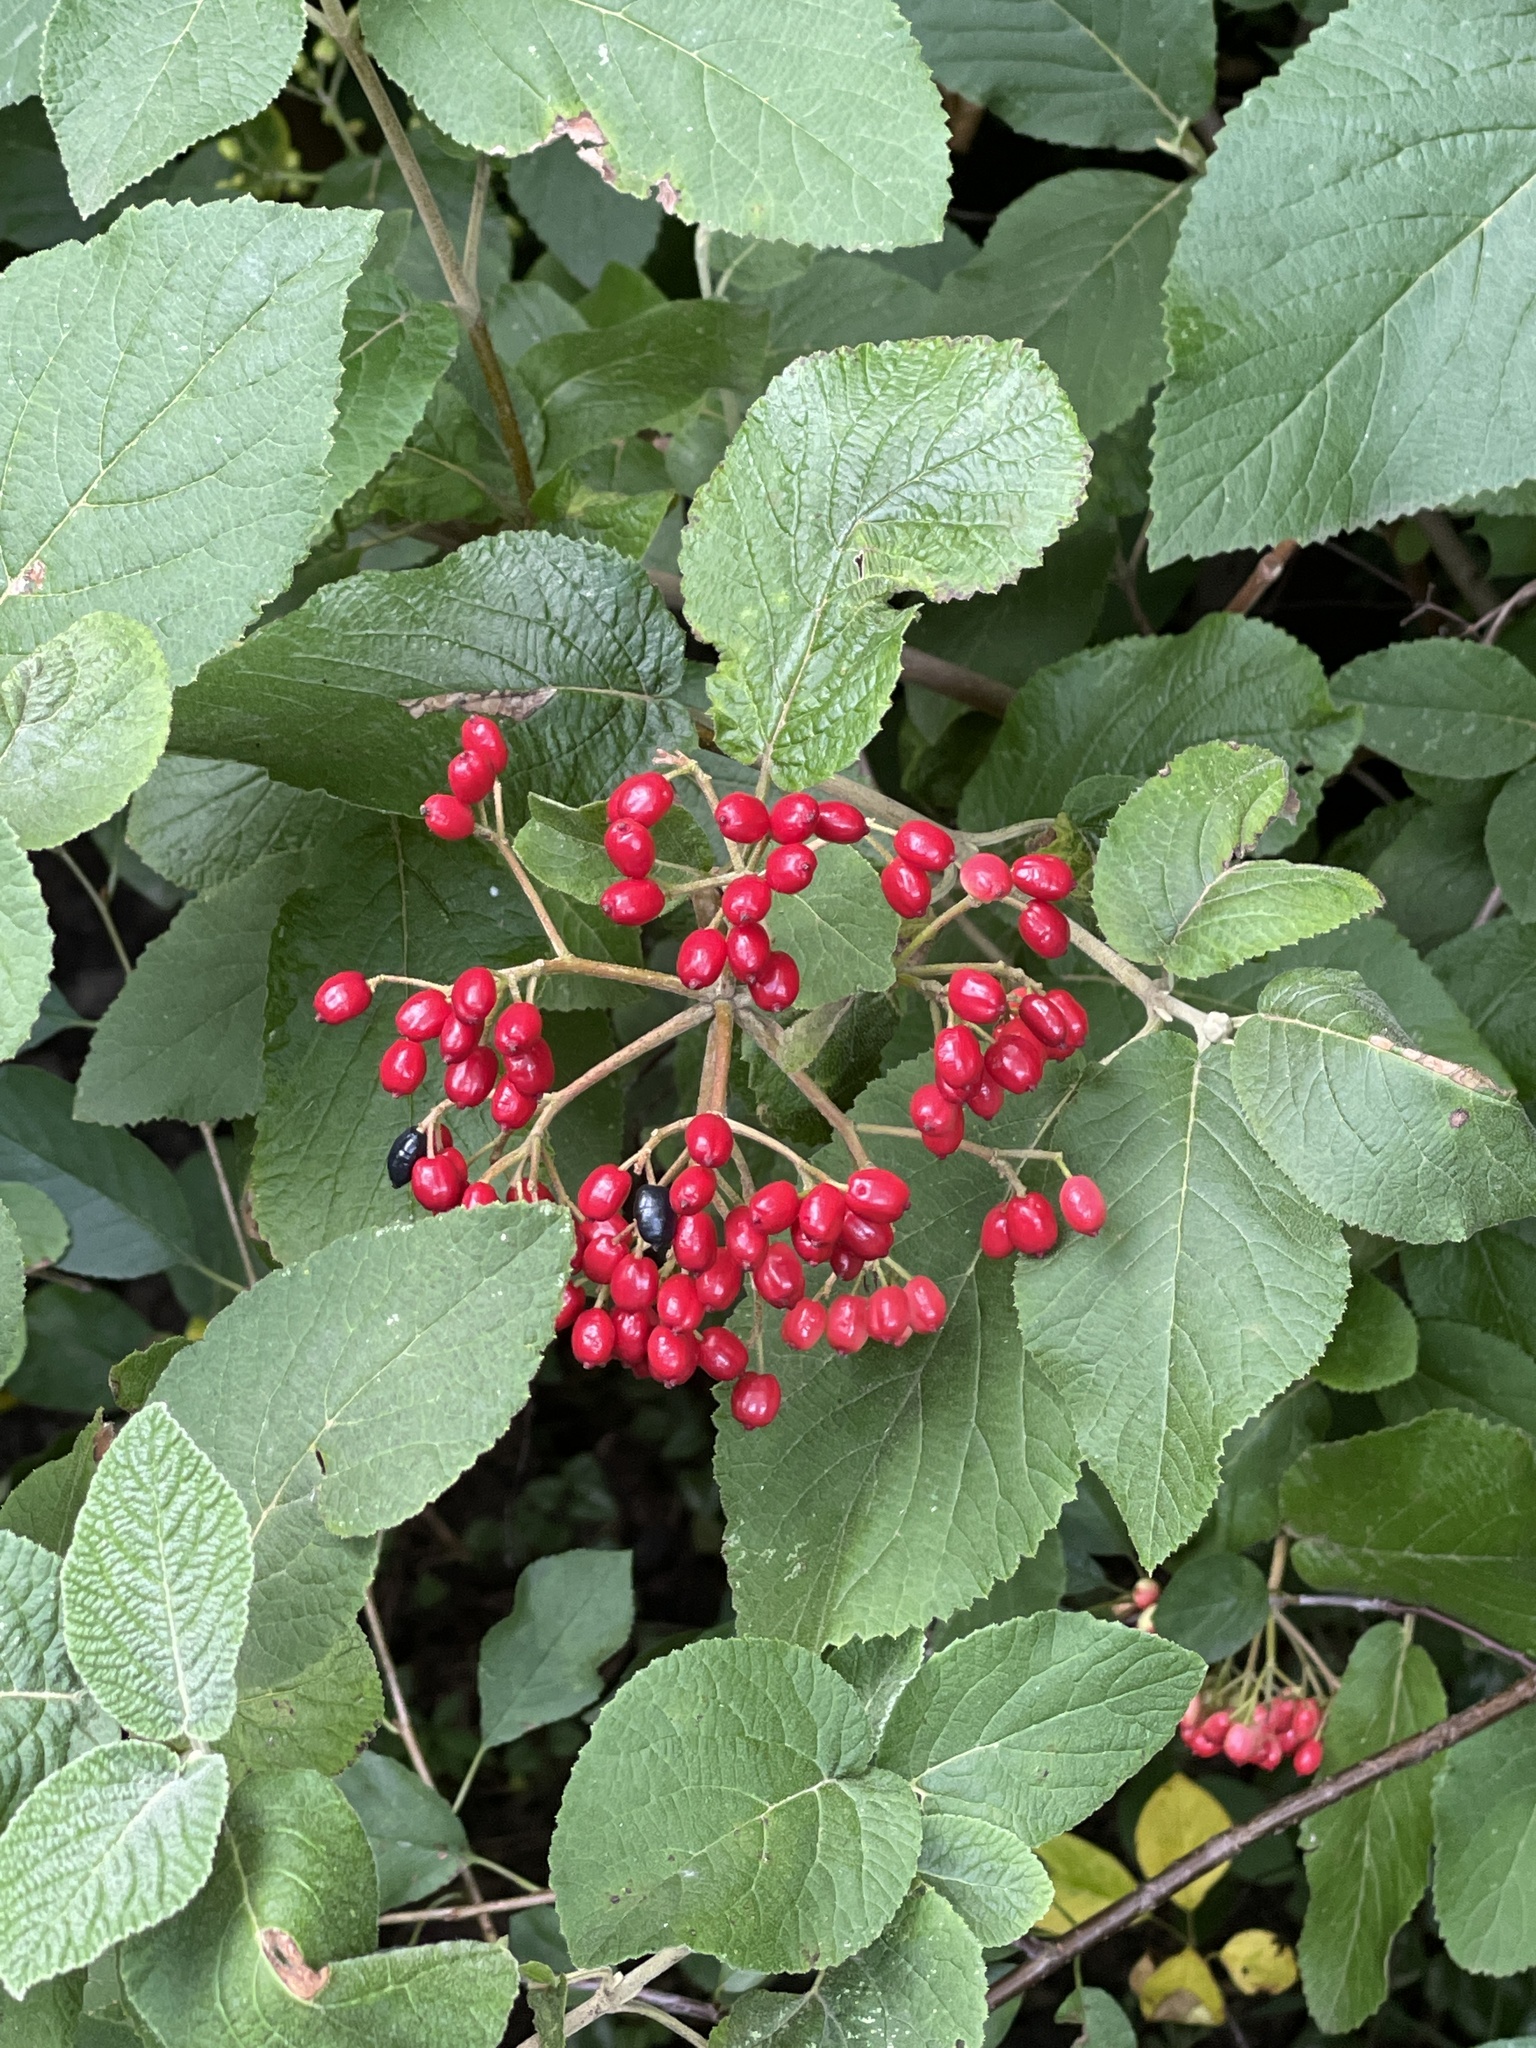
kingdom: Plantae
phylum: Tracheophyta
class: Magnoliopsida
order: Dipsacales
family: Viburnaceae
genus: Viburnum
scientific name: Viburnum lantana
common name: Wayfaring tree
